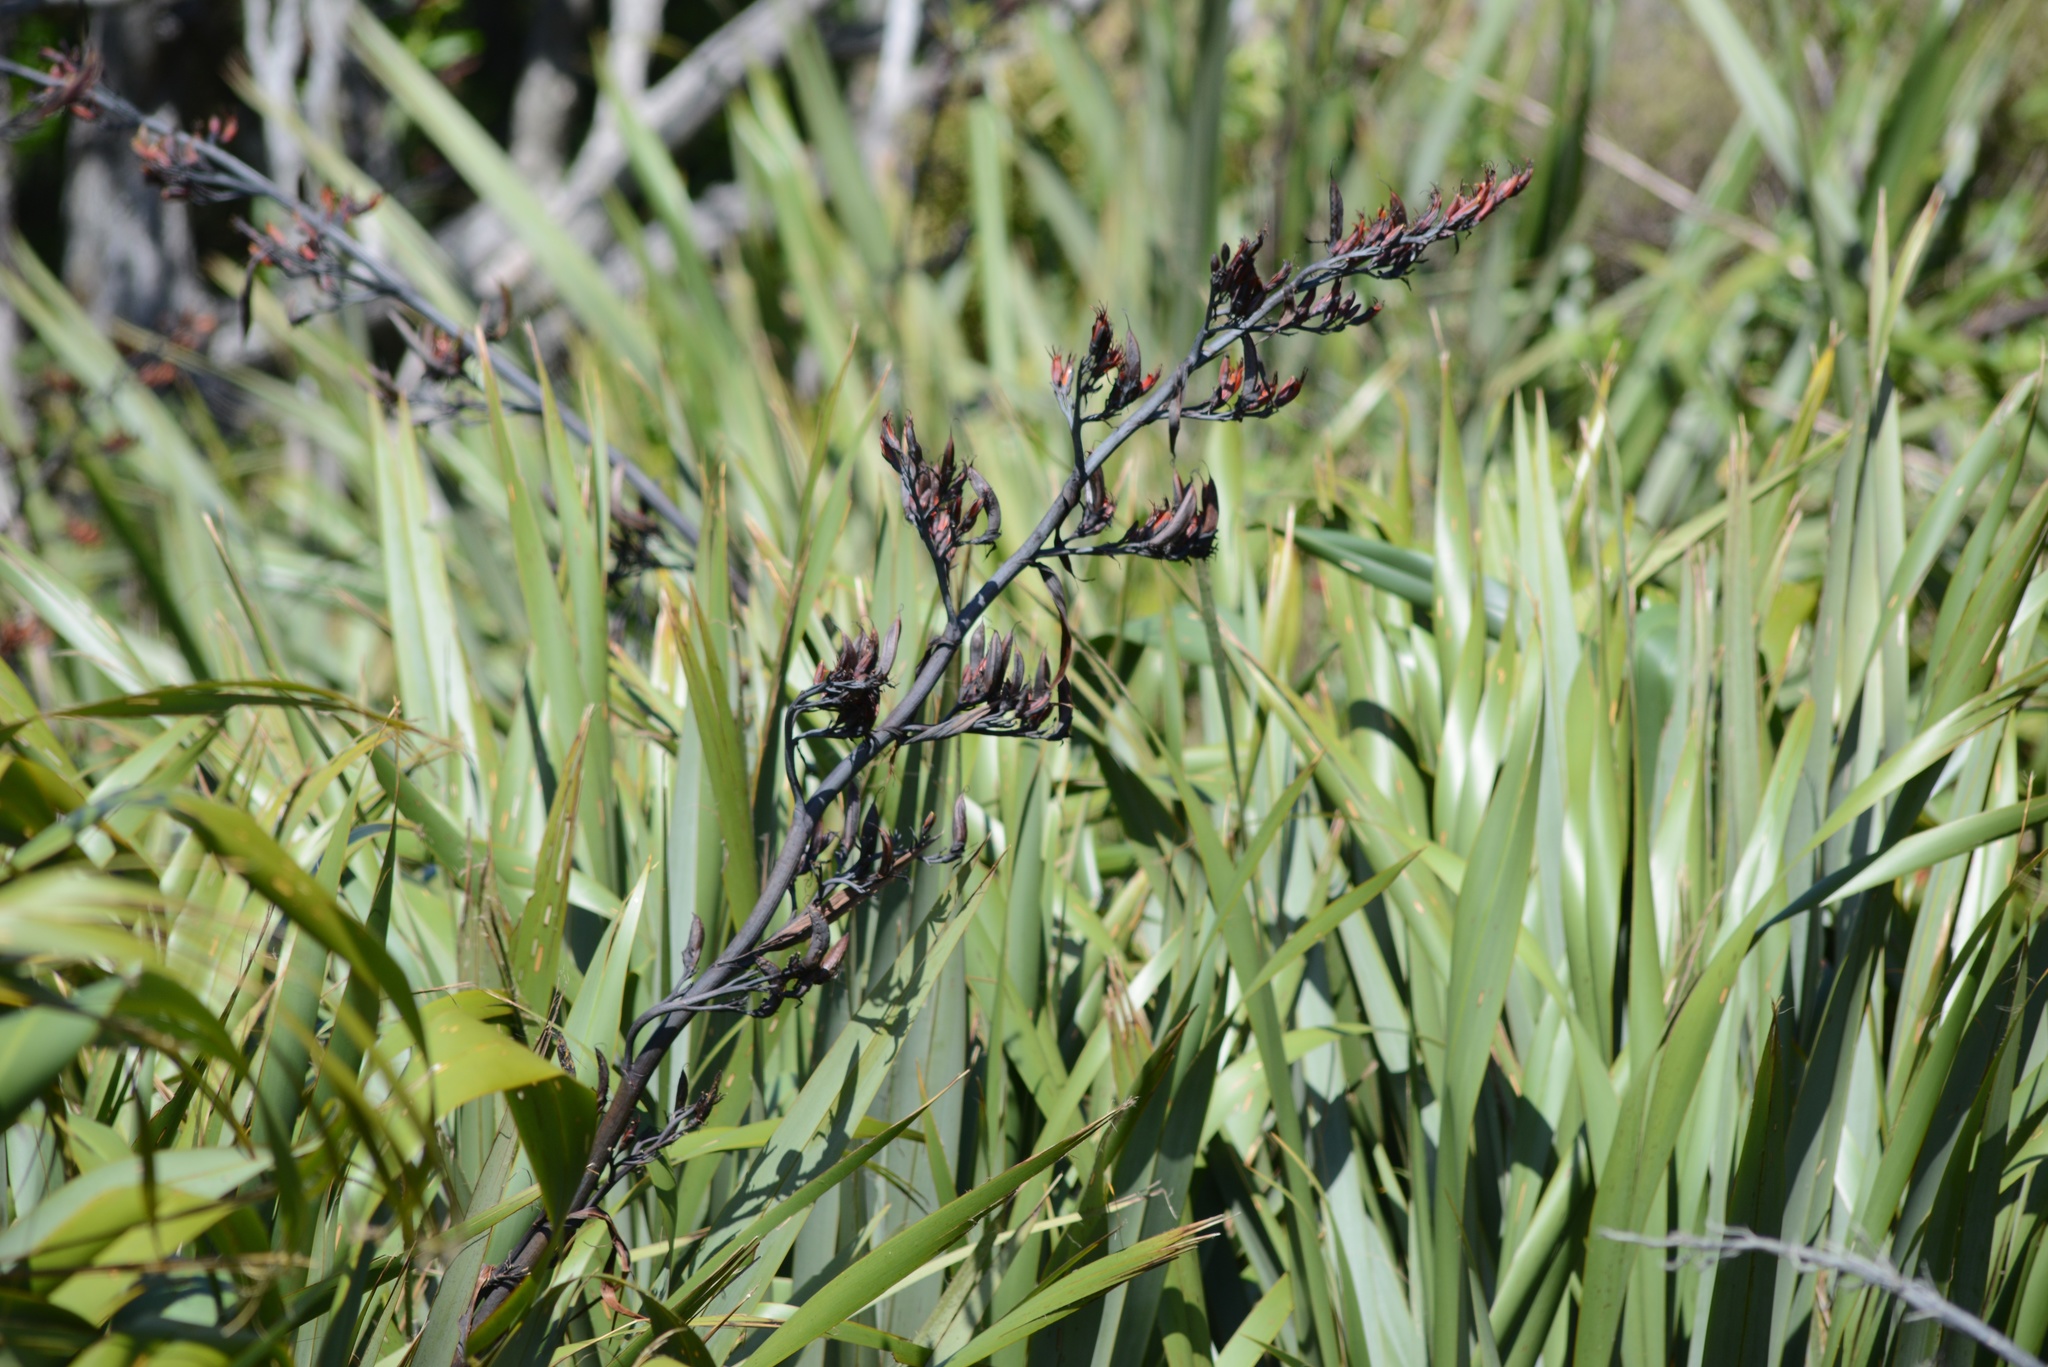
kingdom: Plantae
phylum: Tracheophyta
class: Liliopsida
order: Asparagales
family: Asphodelaceae
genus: Phormium
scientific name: Phormium tenax
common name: New zealand flax
